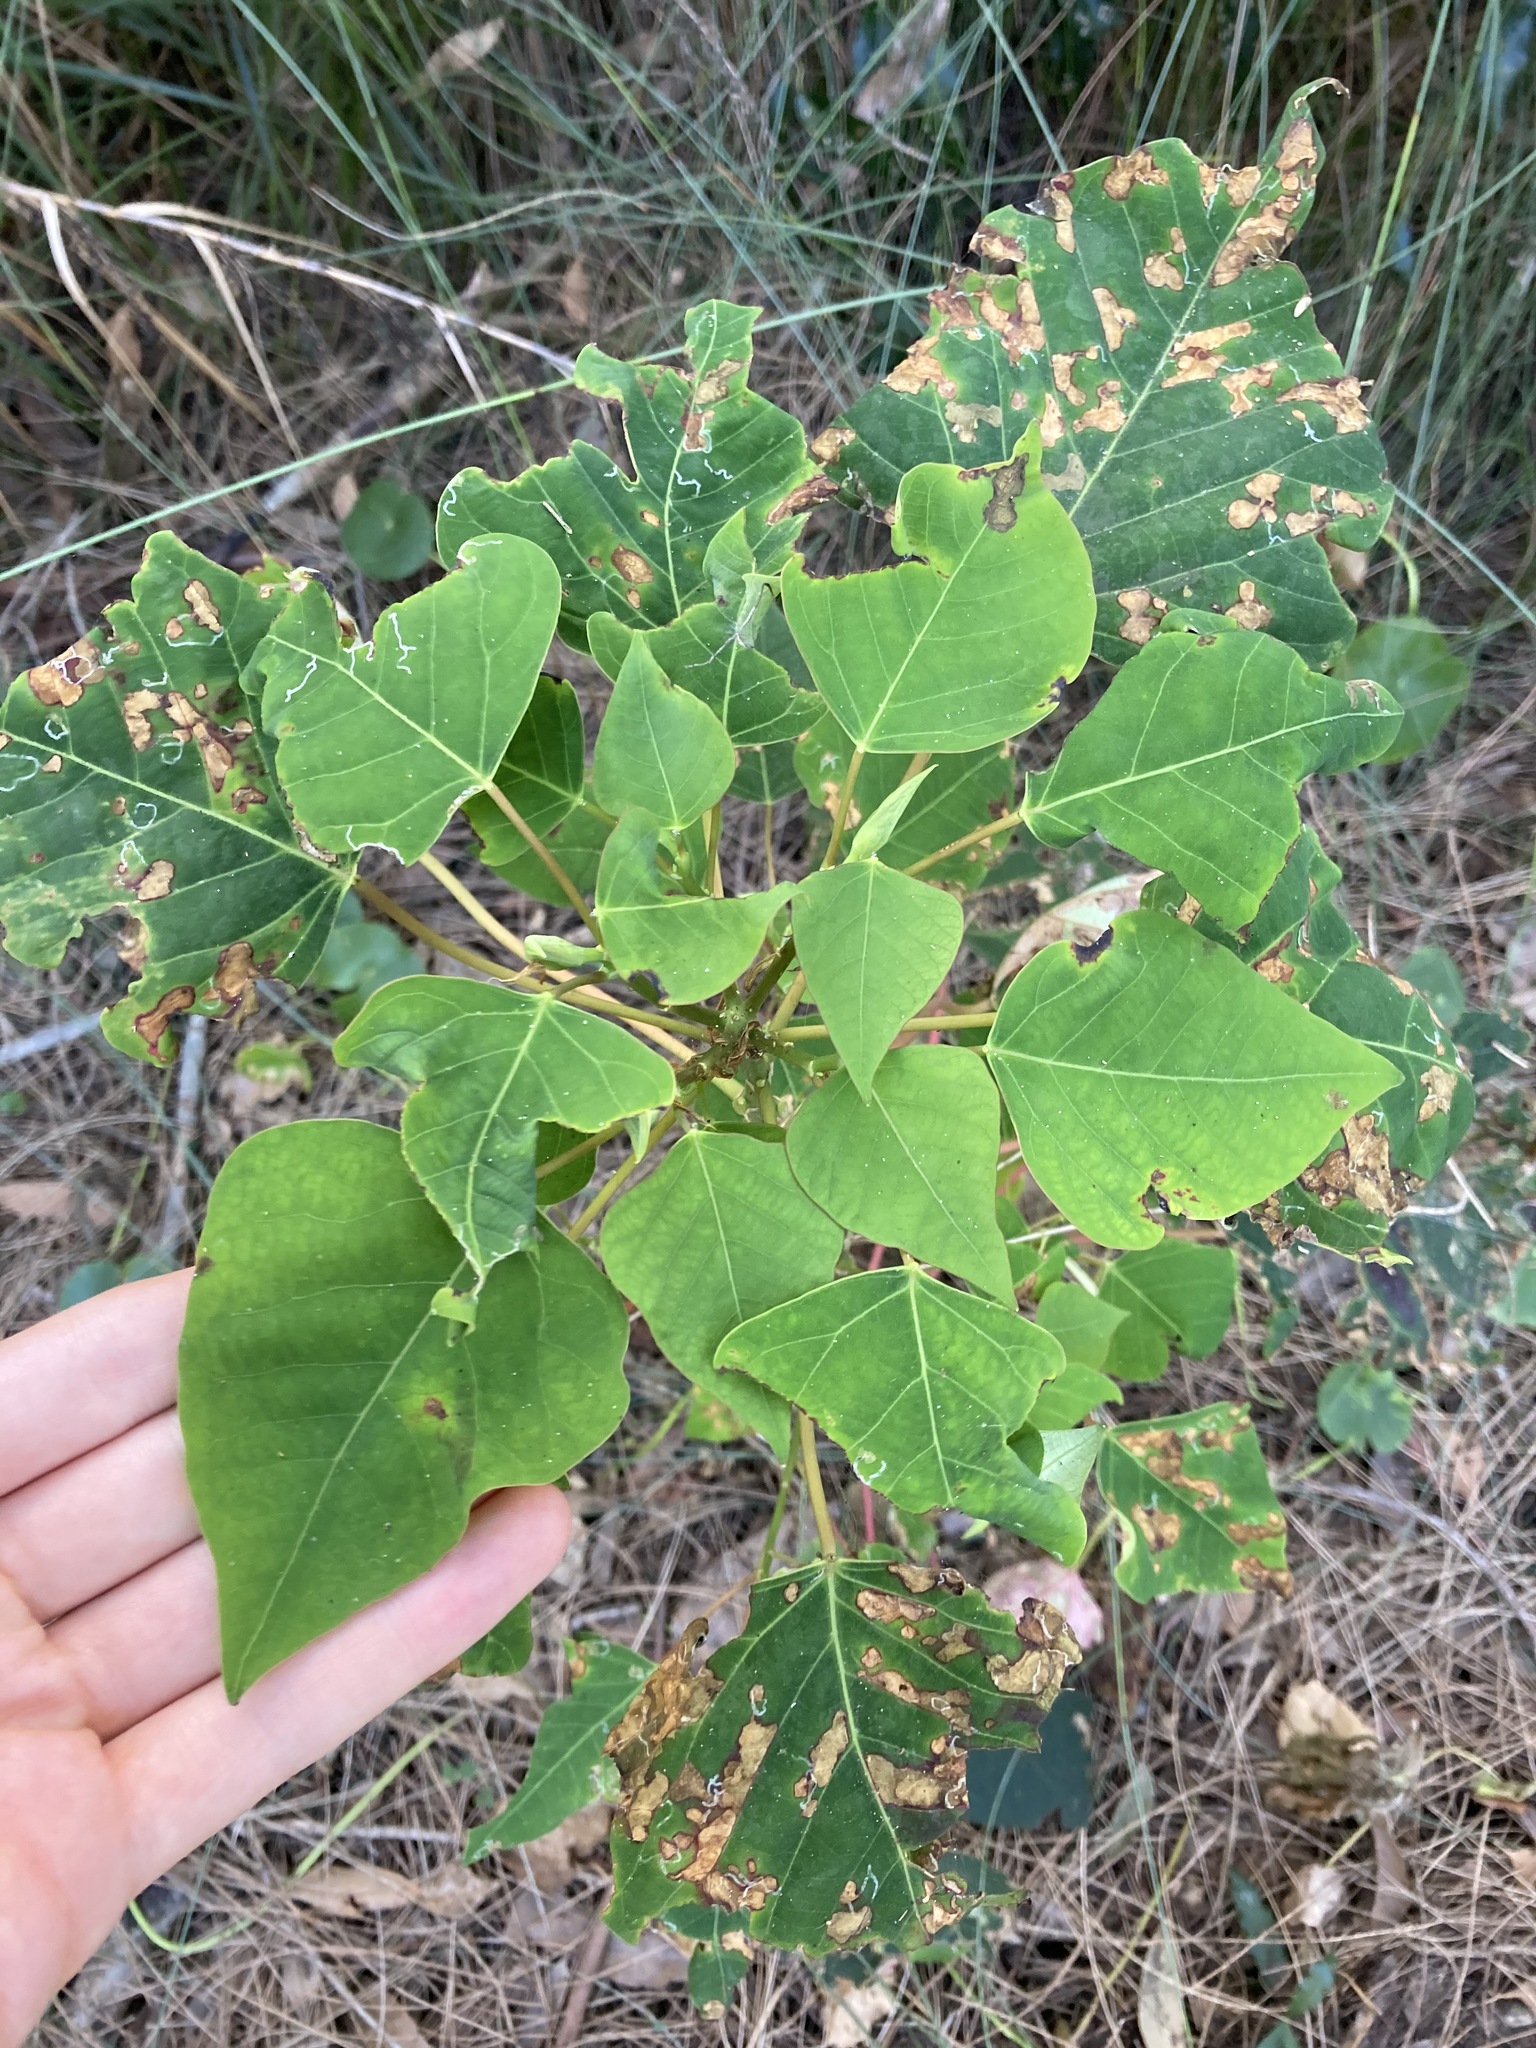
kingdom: Plantae
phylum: Tracheophyta
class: Magnoliopsida
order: Malpighiales
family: Euphorbiaceae
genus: Homalanthus
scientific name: Homalanthus populifolius
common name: Queensland poplar
